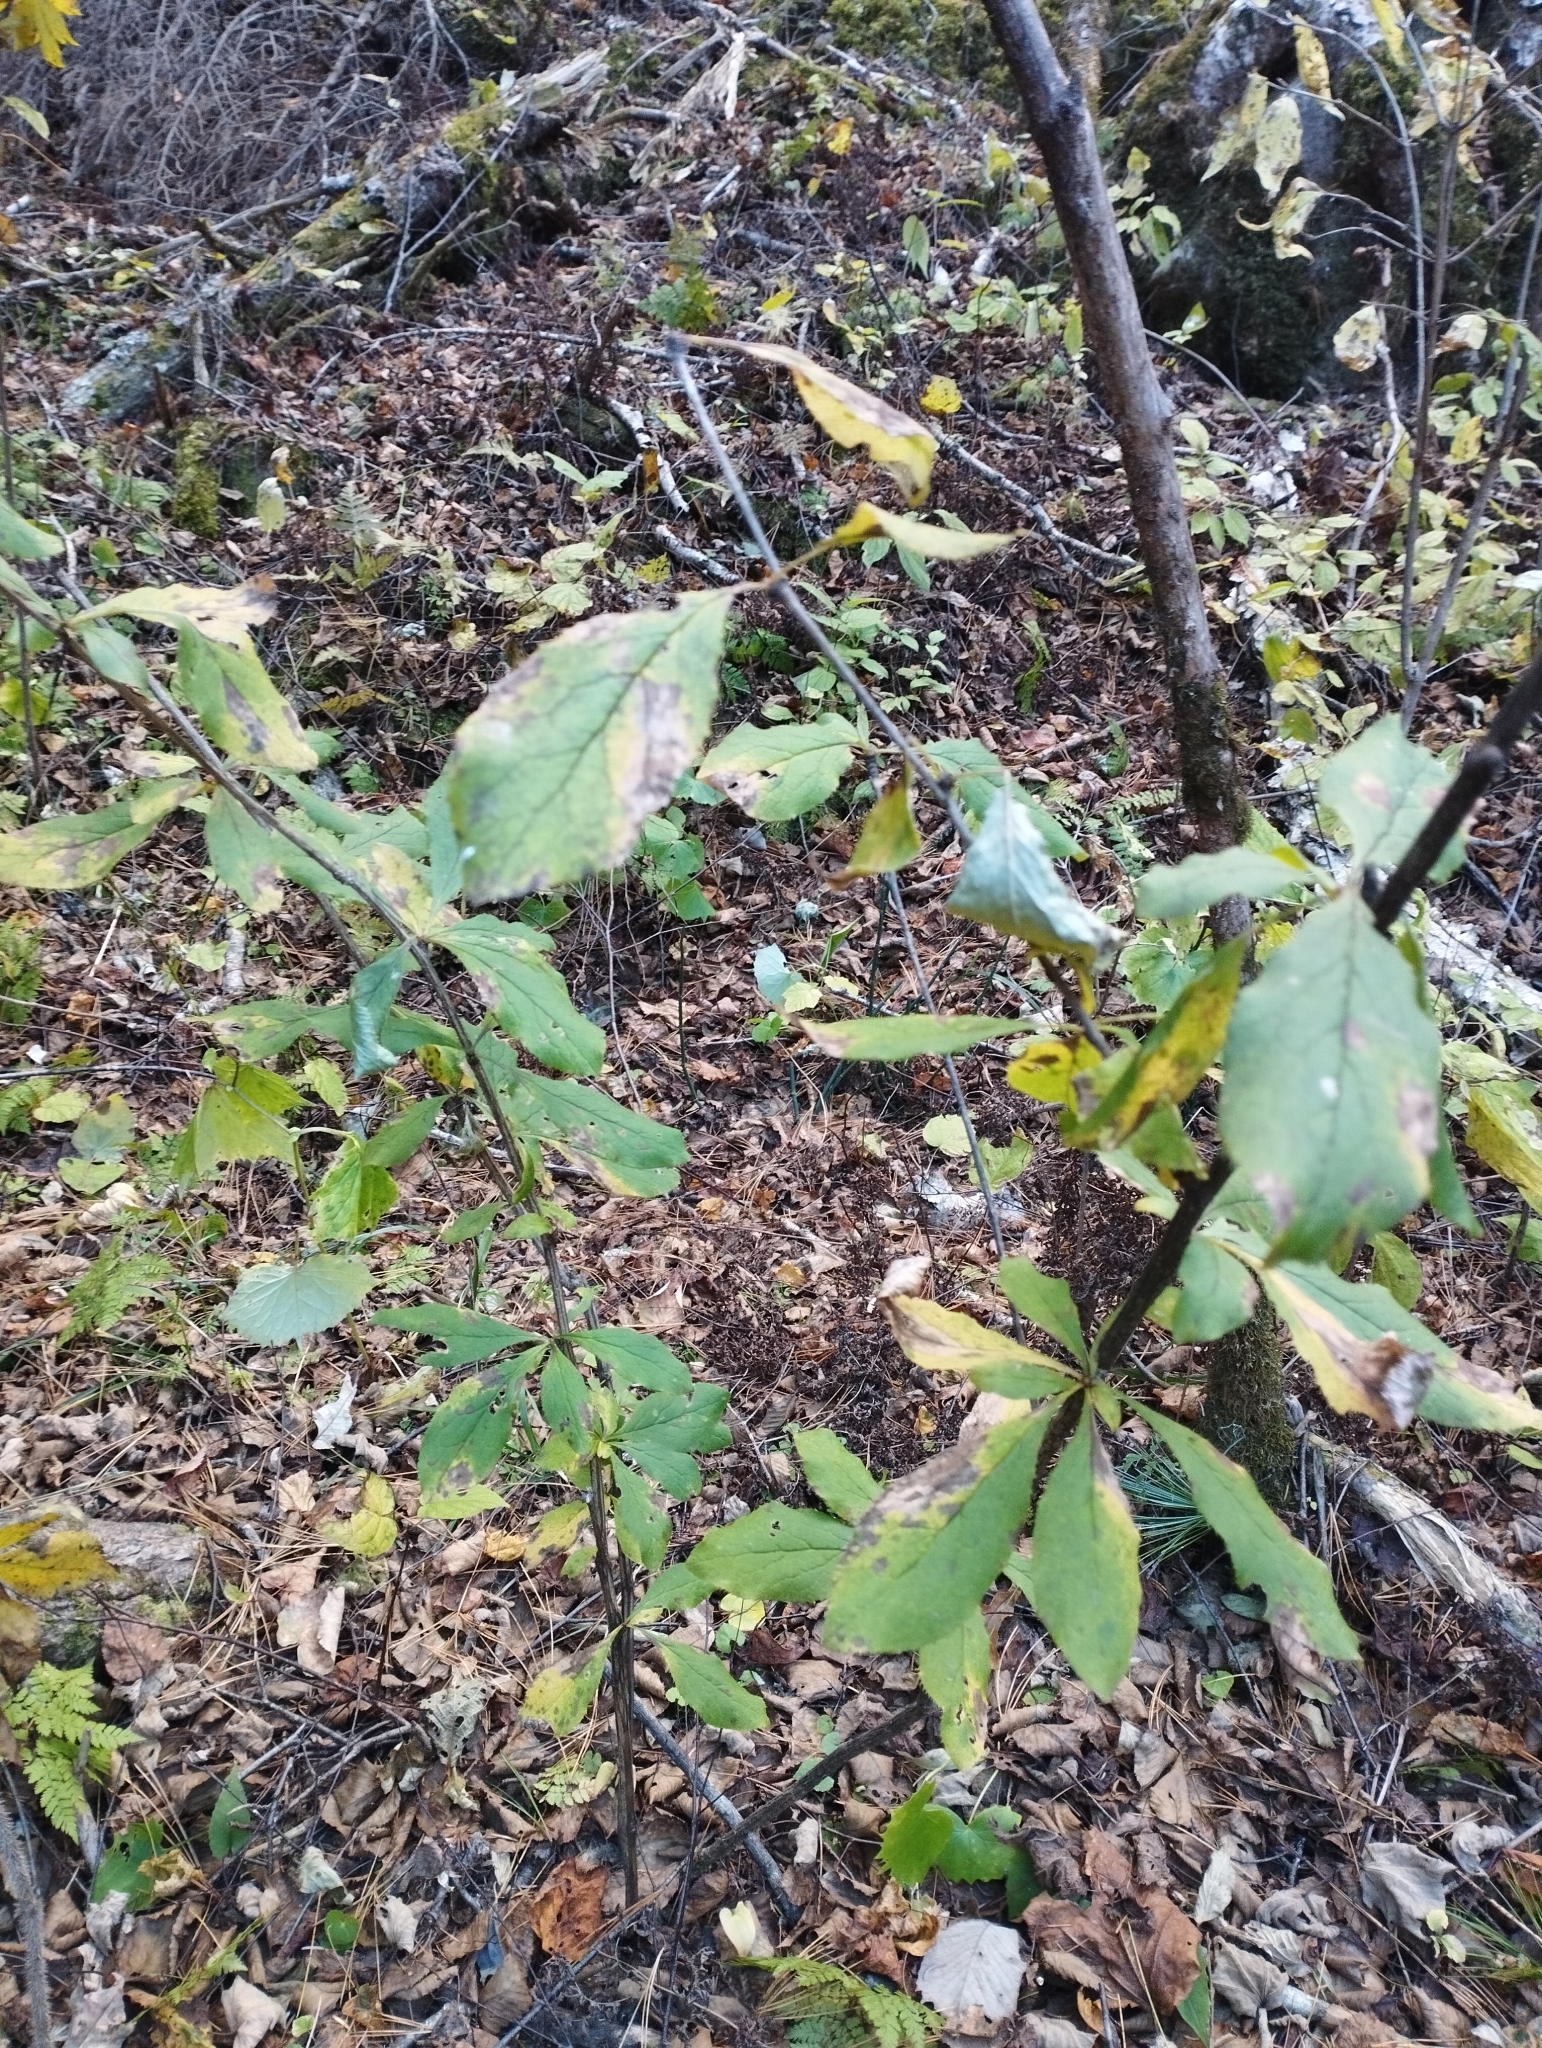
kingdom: Plantae
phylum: Tracheophyta
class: Magnoliopsida
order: Ranunculales
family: Berberidaceae
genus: Berberis
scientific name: Berberis amurensis
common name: Amur barberry
